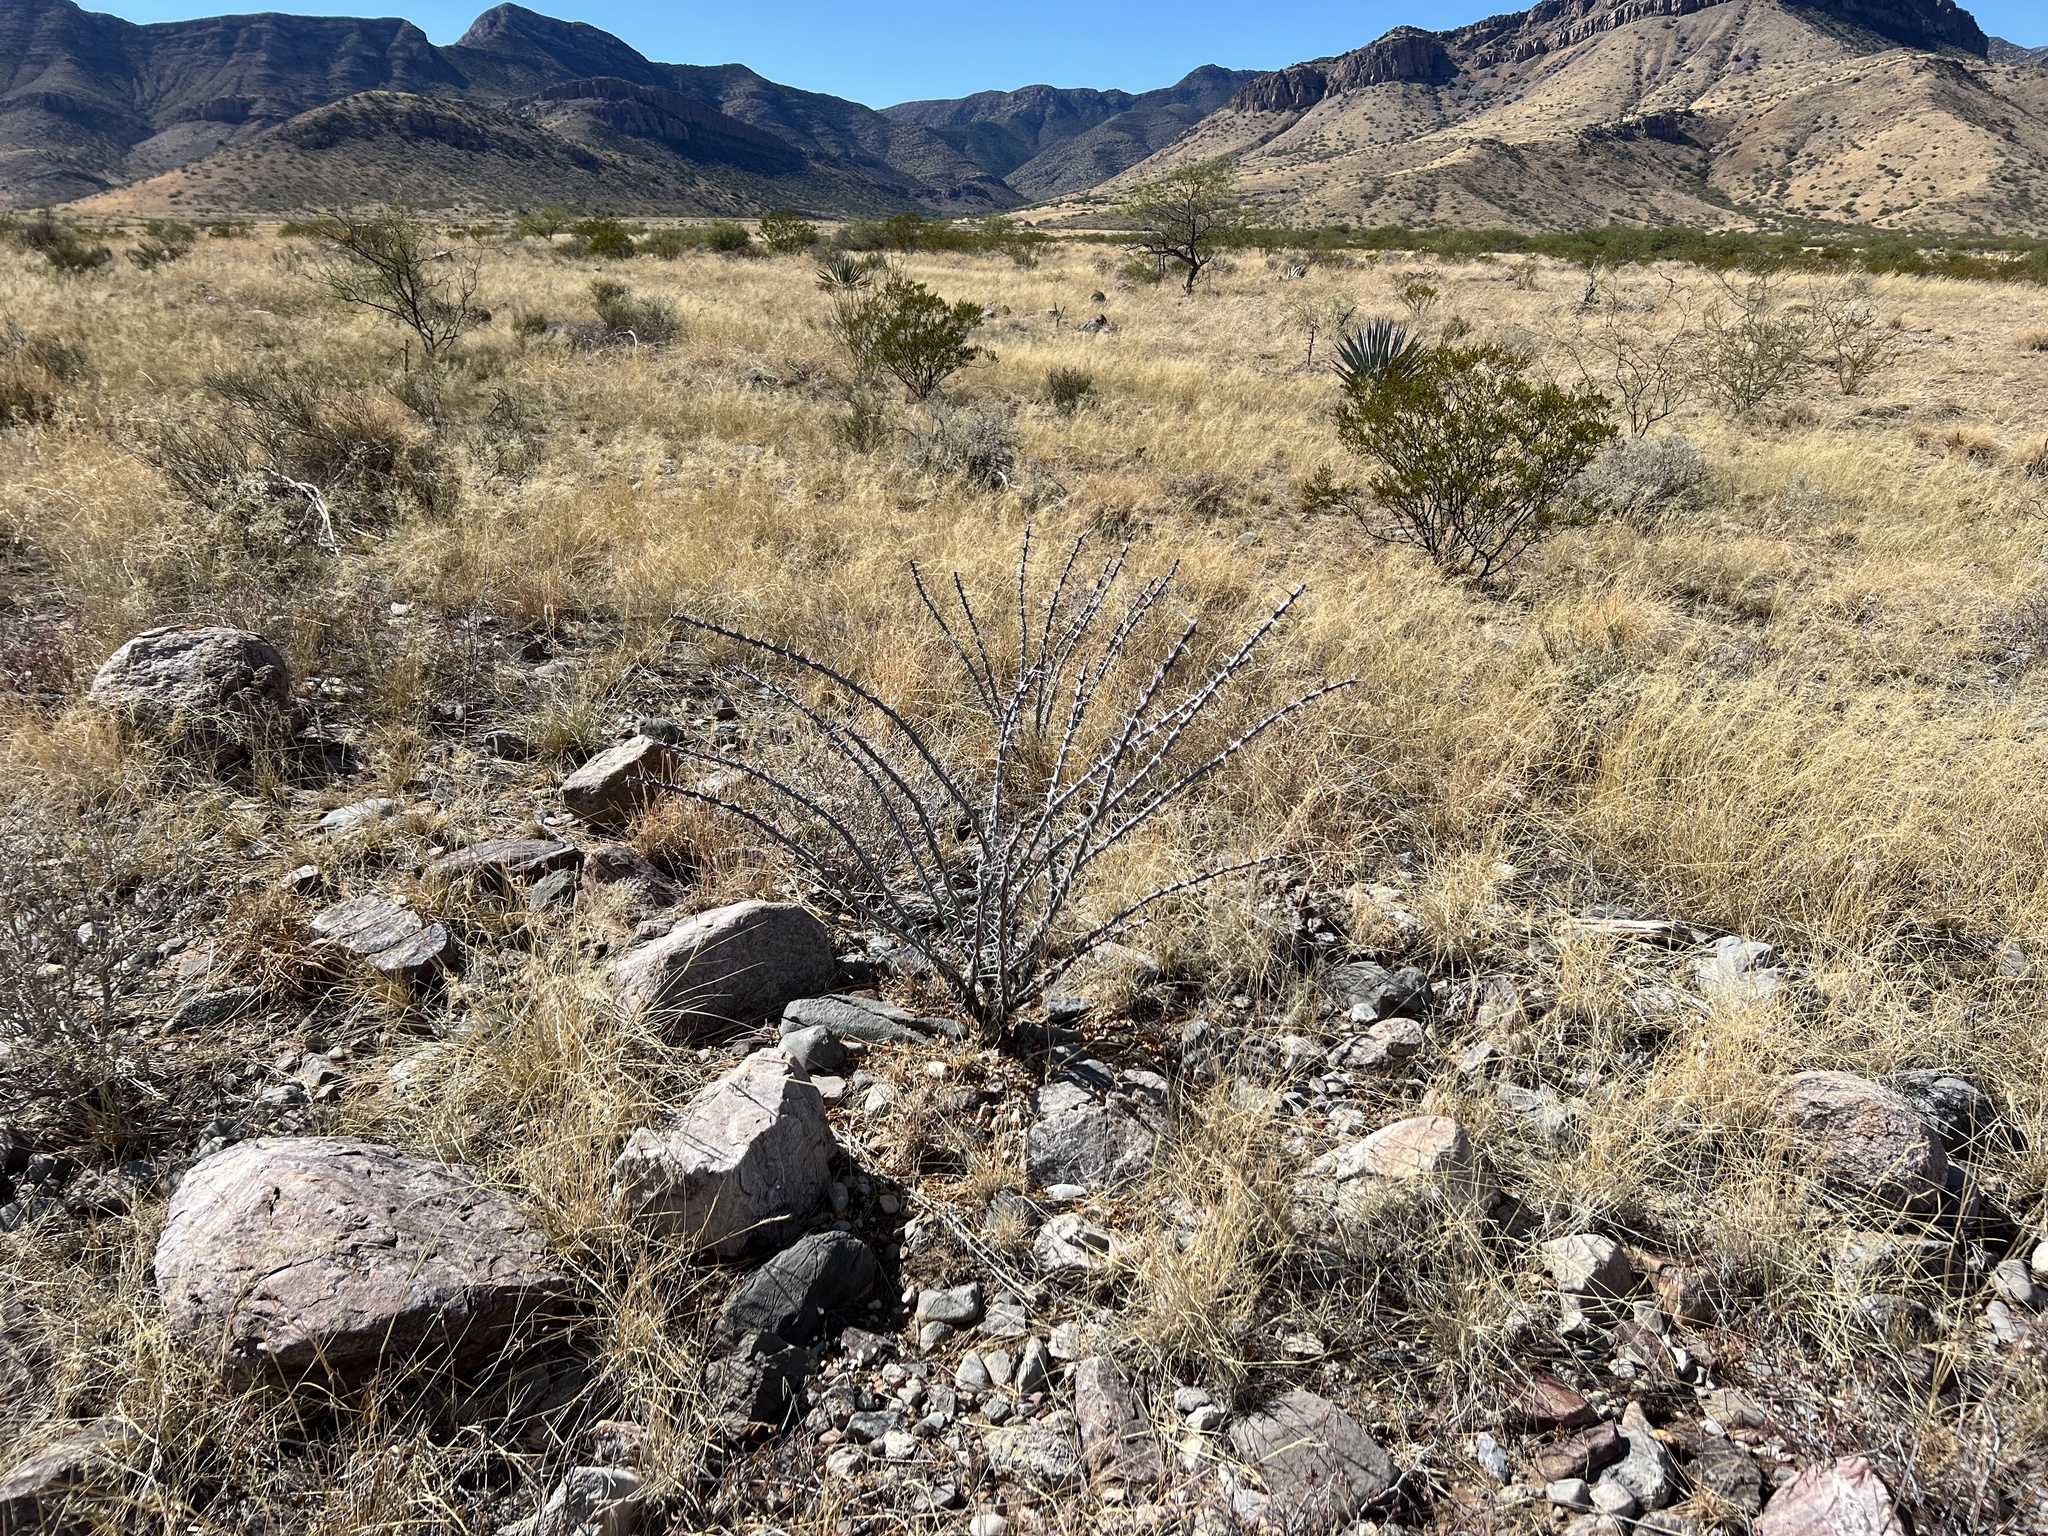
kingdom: Plantae
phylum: Tracheophyta
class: Magnoliopsida
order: Ericales
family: Fouquieriaceae
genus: Fouquieria
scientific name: Fouquieria splendens
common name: Vine-cactus
